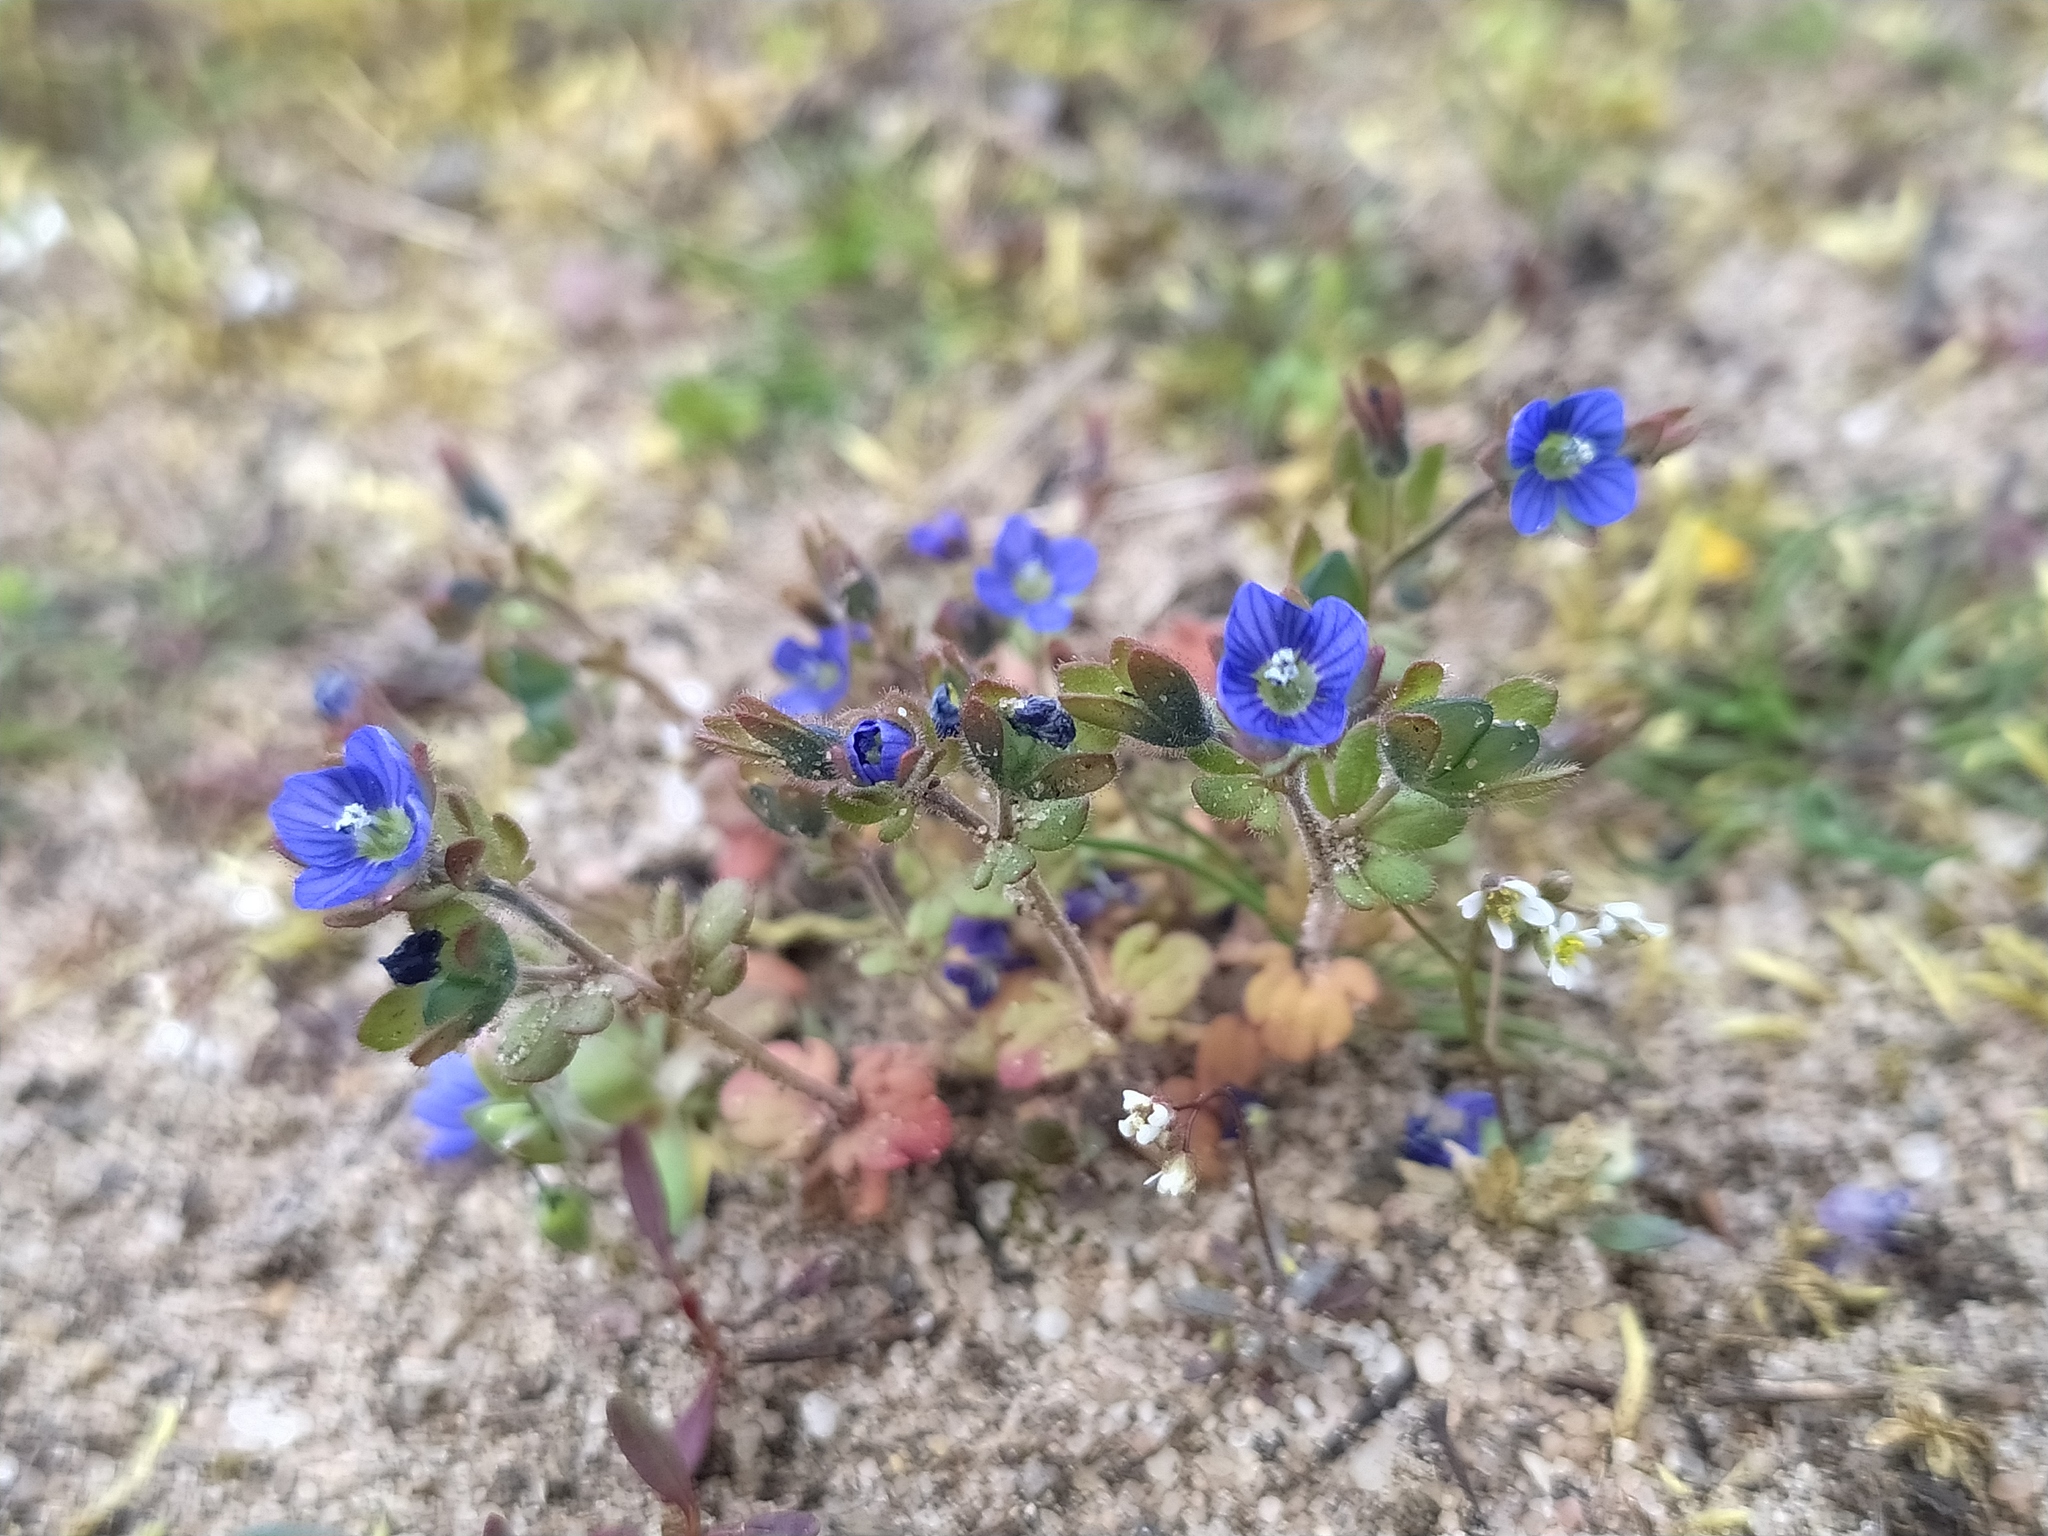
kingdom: Plantae
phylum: Tracheophyta
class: Magnoliopsida
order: Lamiales
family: Plantaginaceae
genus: Veronica
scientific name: Veronica triphyllos
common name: Fingered speedwell
